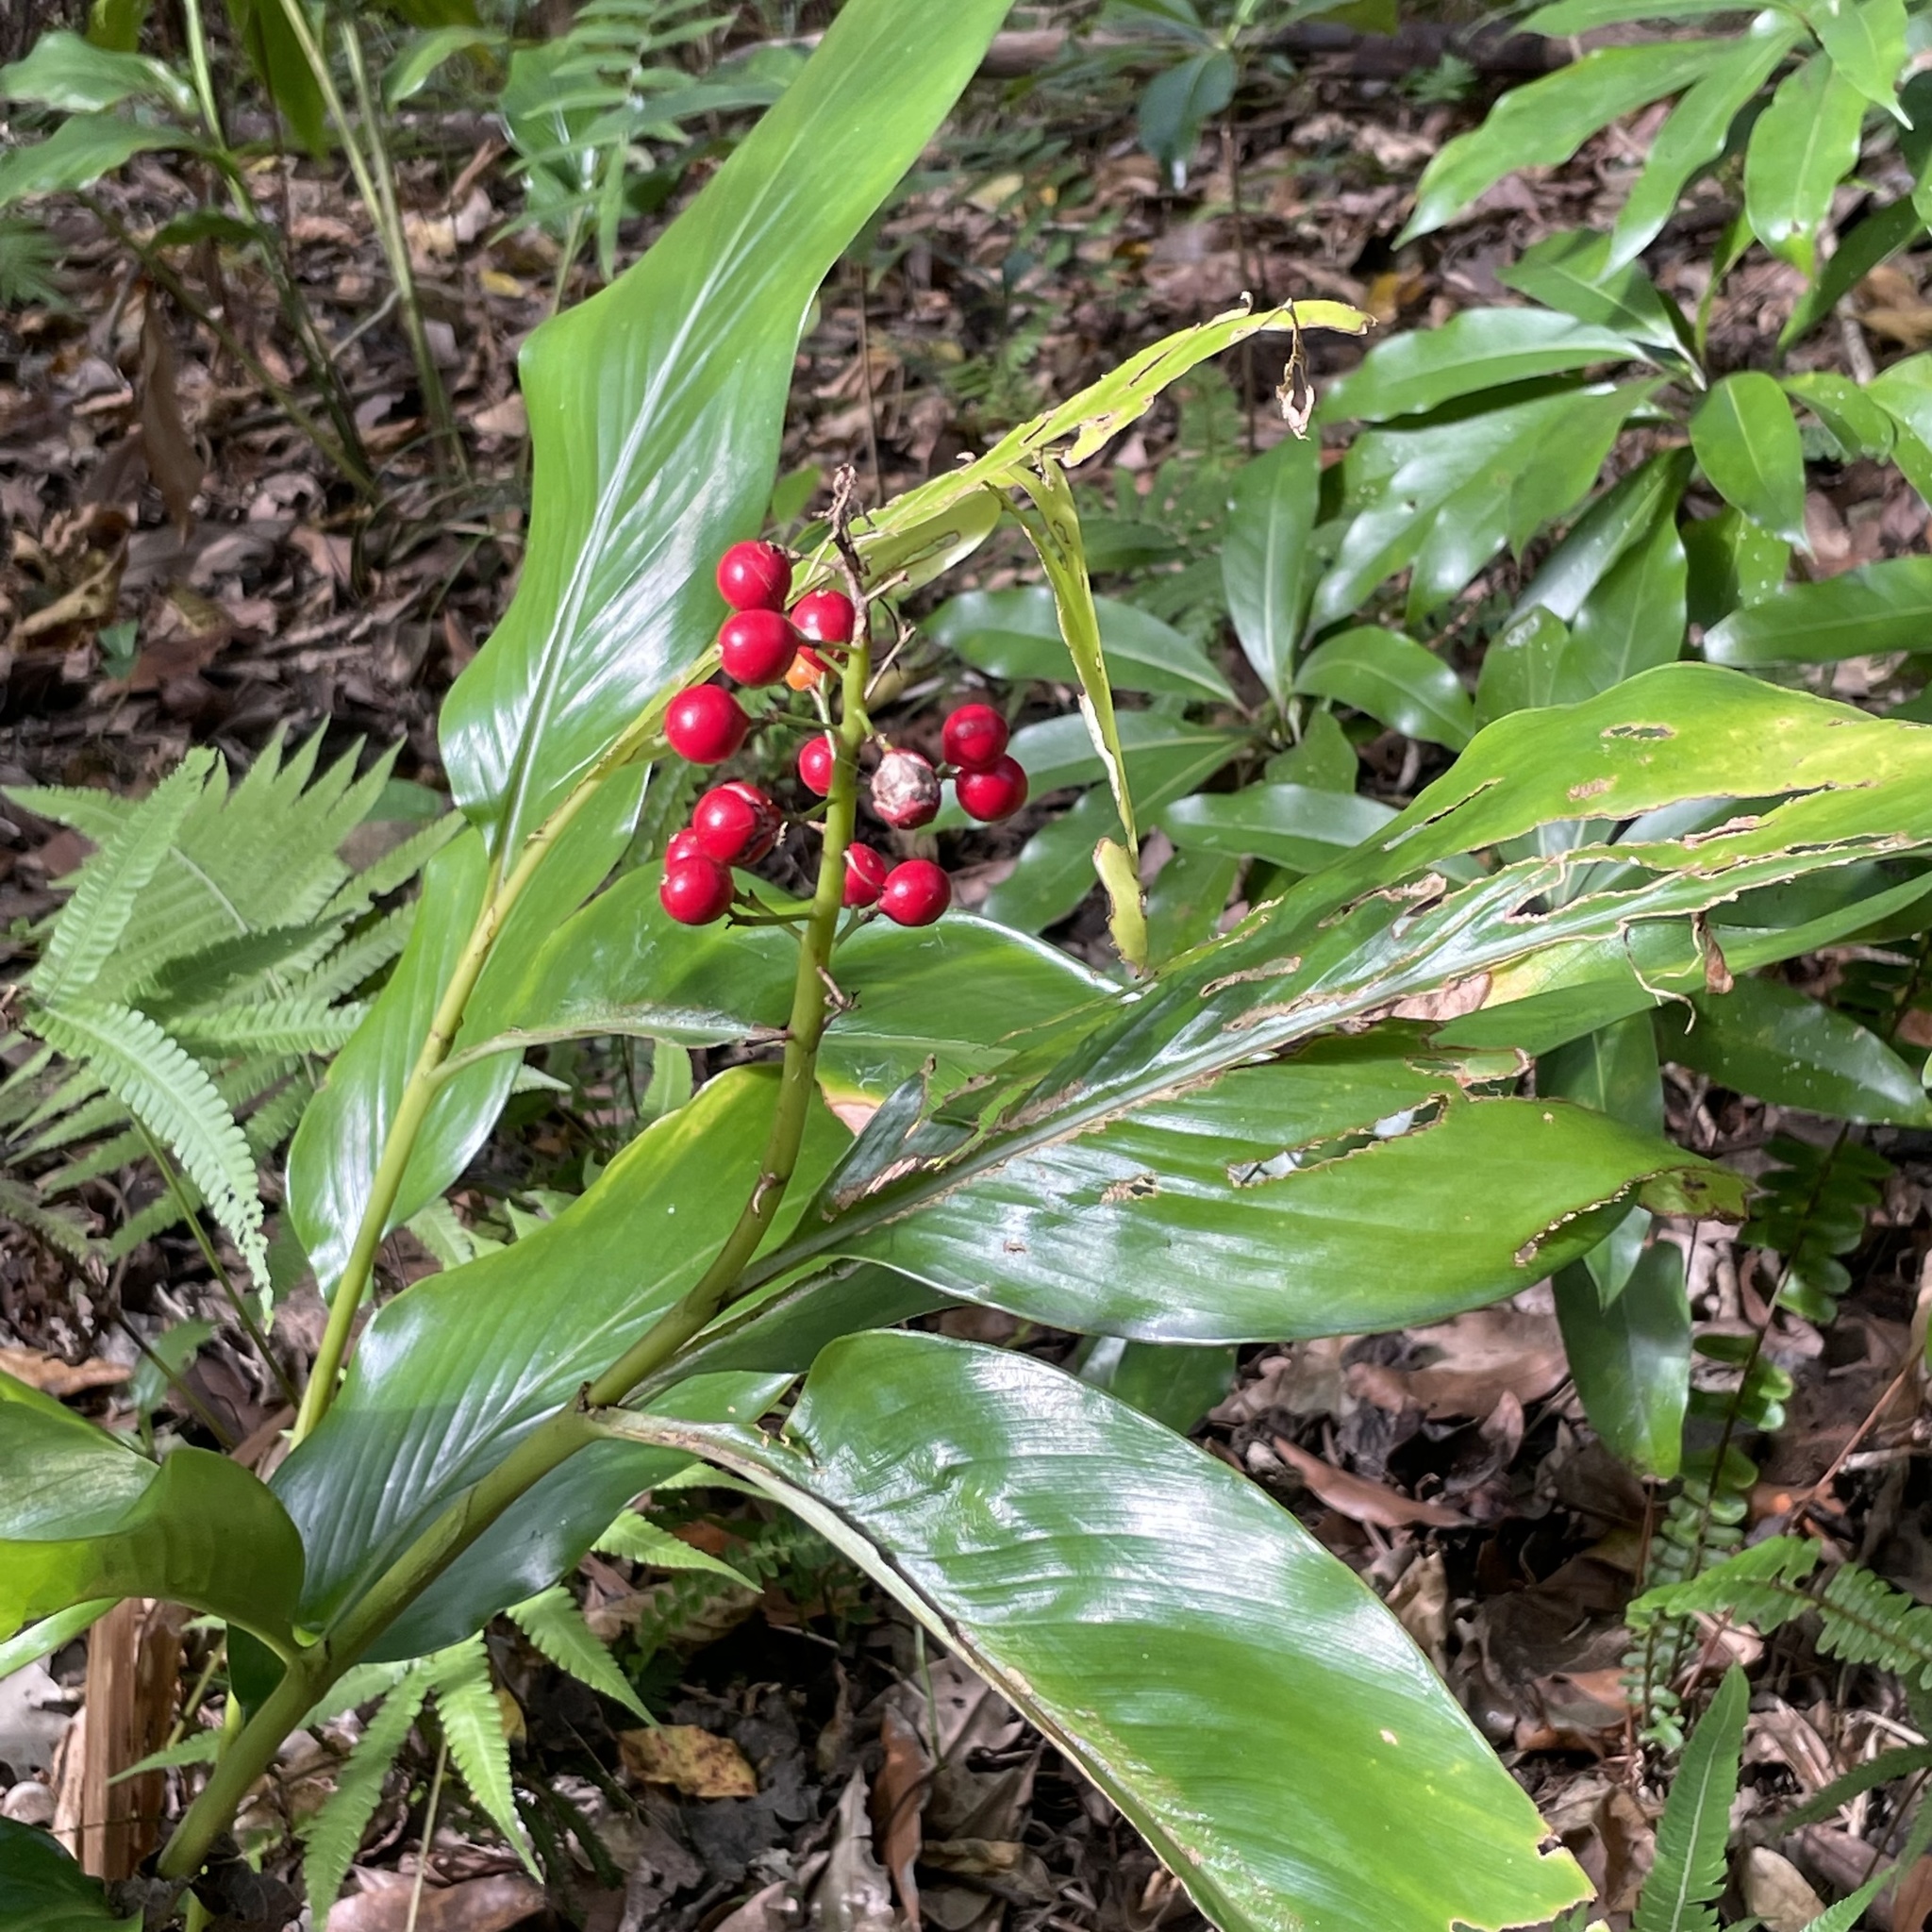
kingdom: Plantae
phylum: Tracheophyta
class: Liliopsida
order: Zingiberales
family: Zingiberaceae
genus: Alpinia
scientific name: Alpinia intermedia
